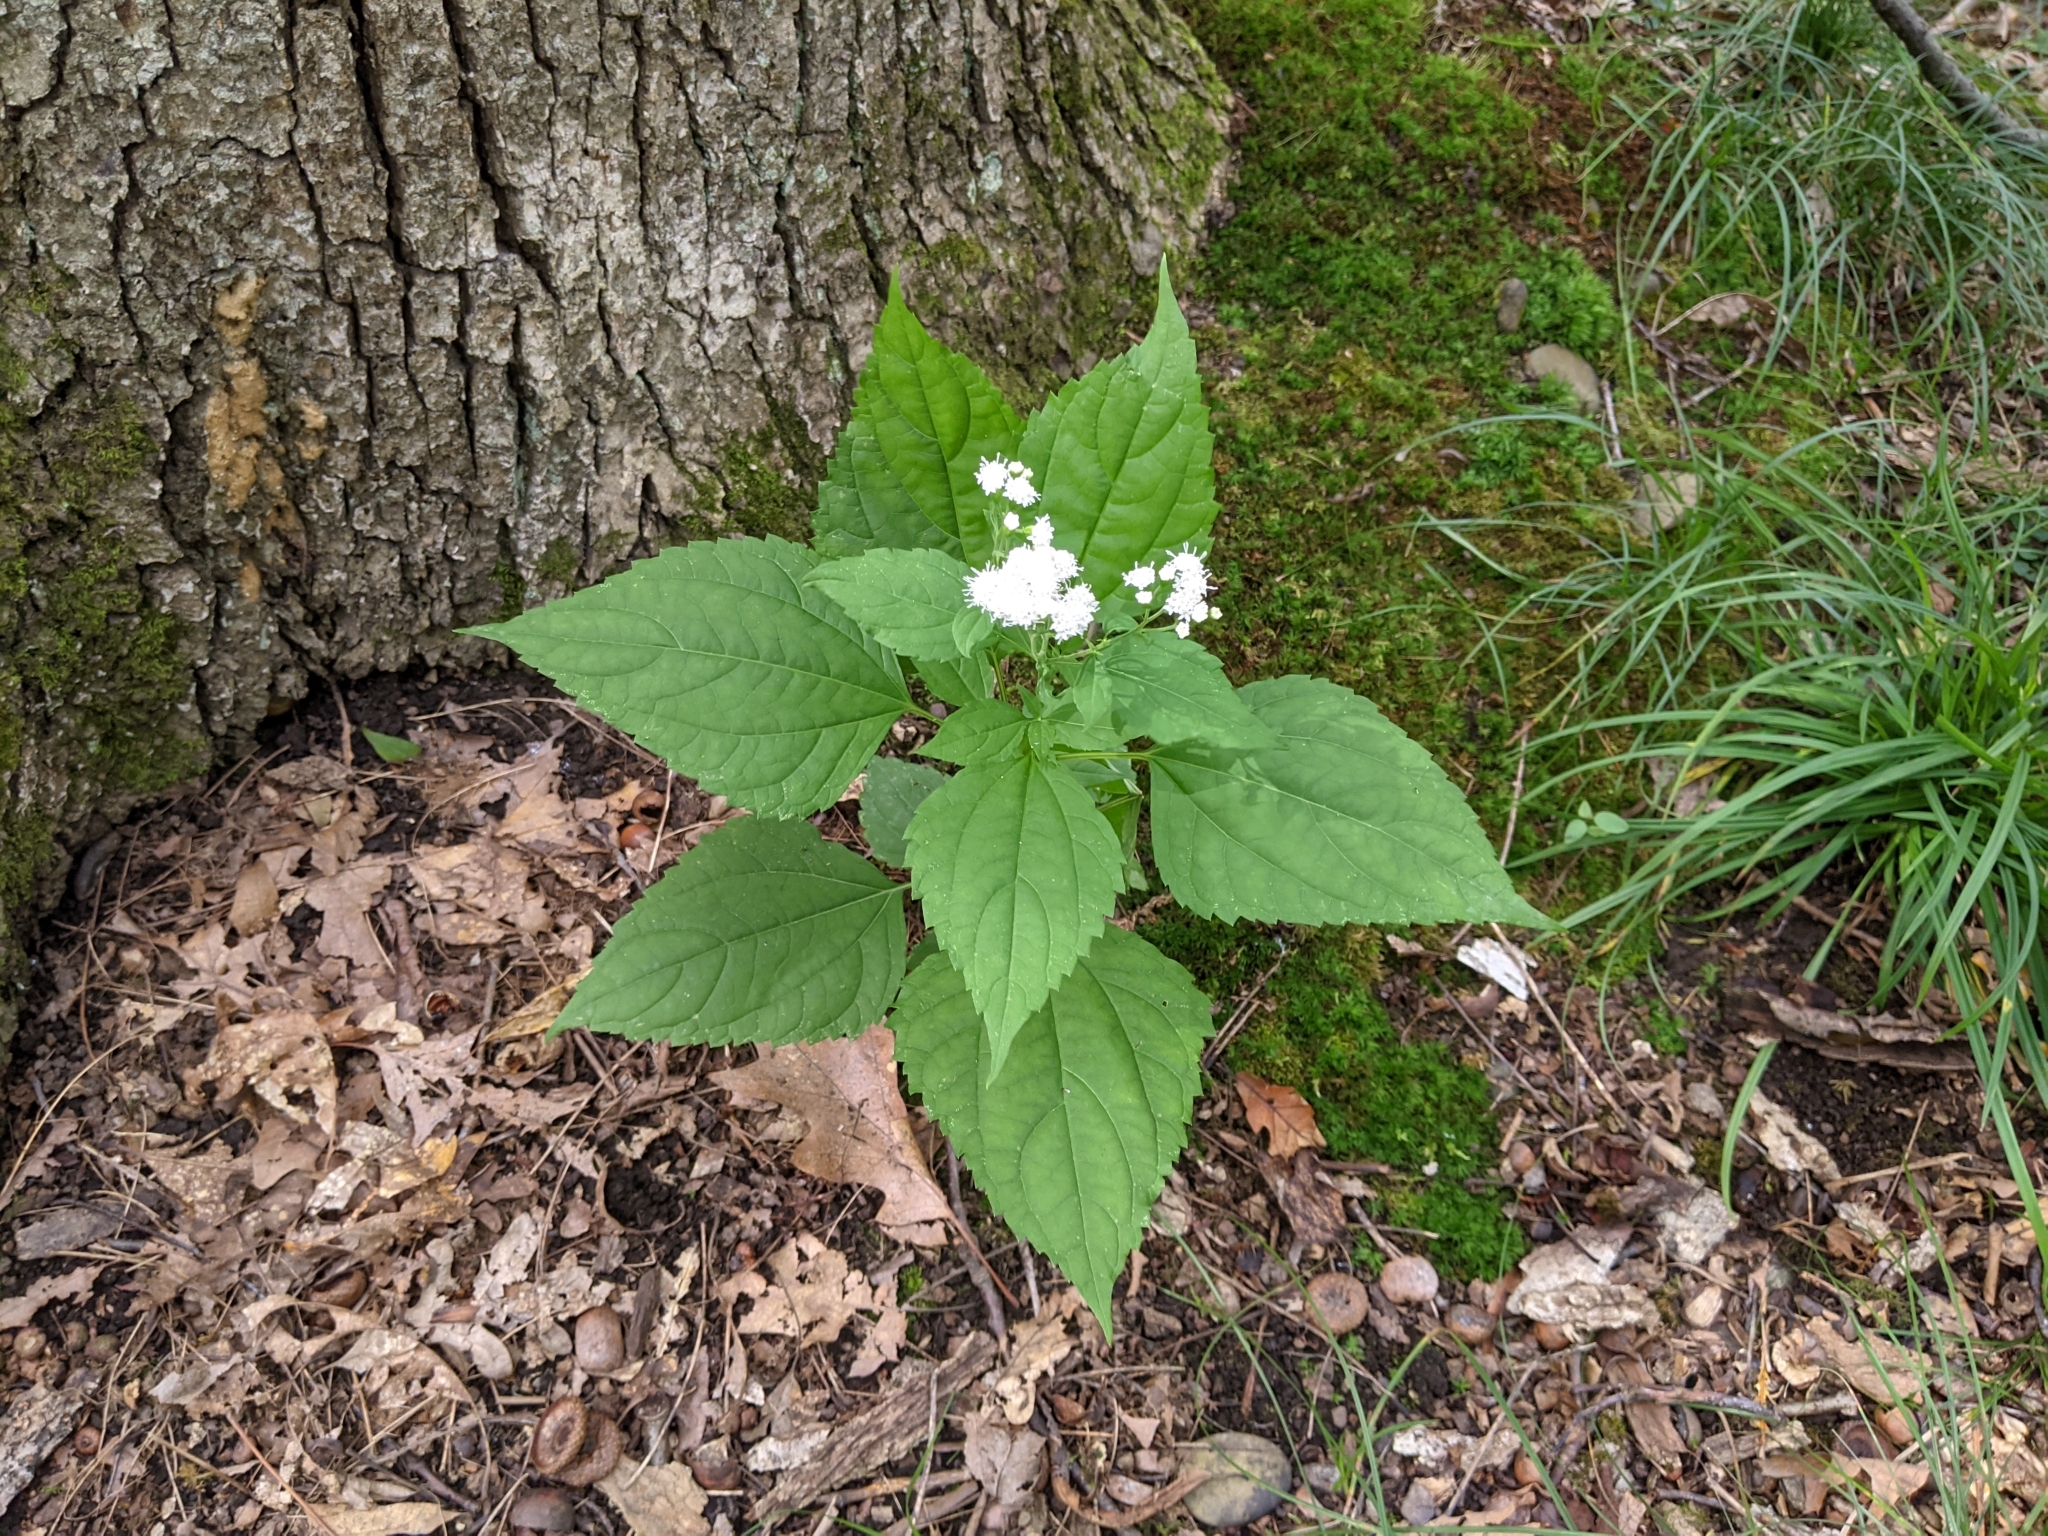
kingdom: Plantae
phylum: Tracheophyta
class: Magnoliopsida
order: Asterales
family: Asteraceae
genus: Ageratina
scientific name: Ageratina altissima
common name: White snakeroot
